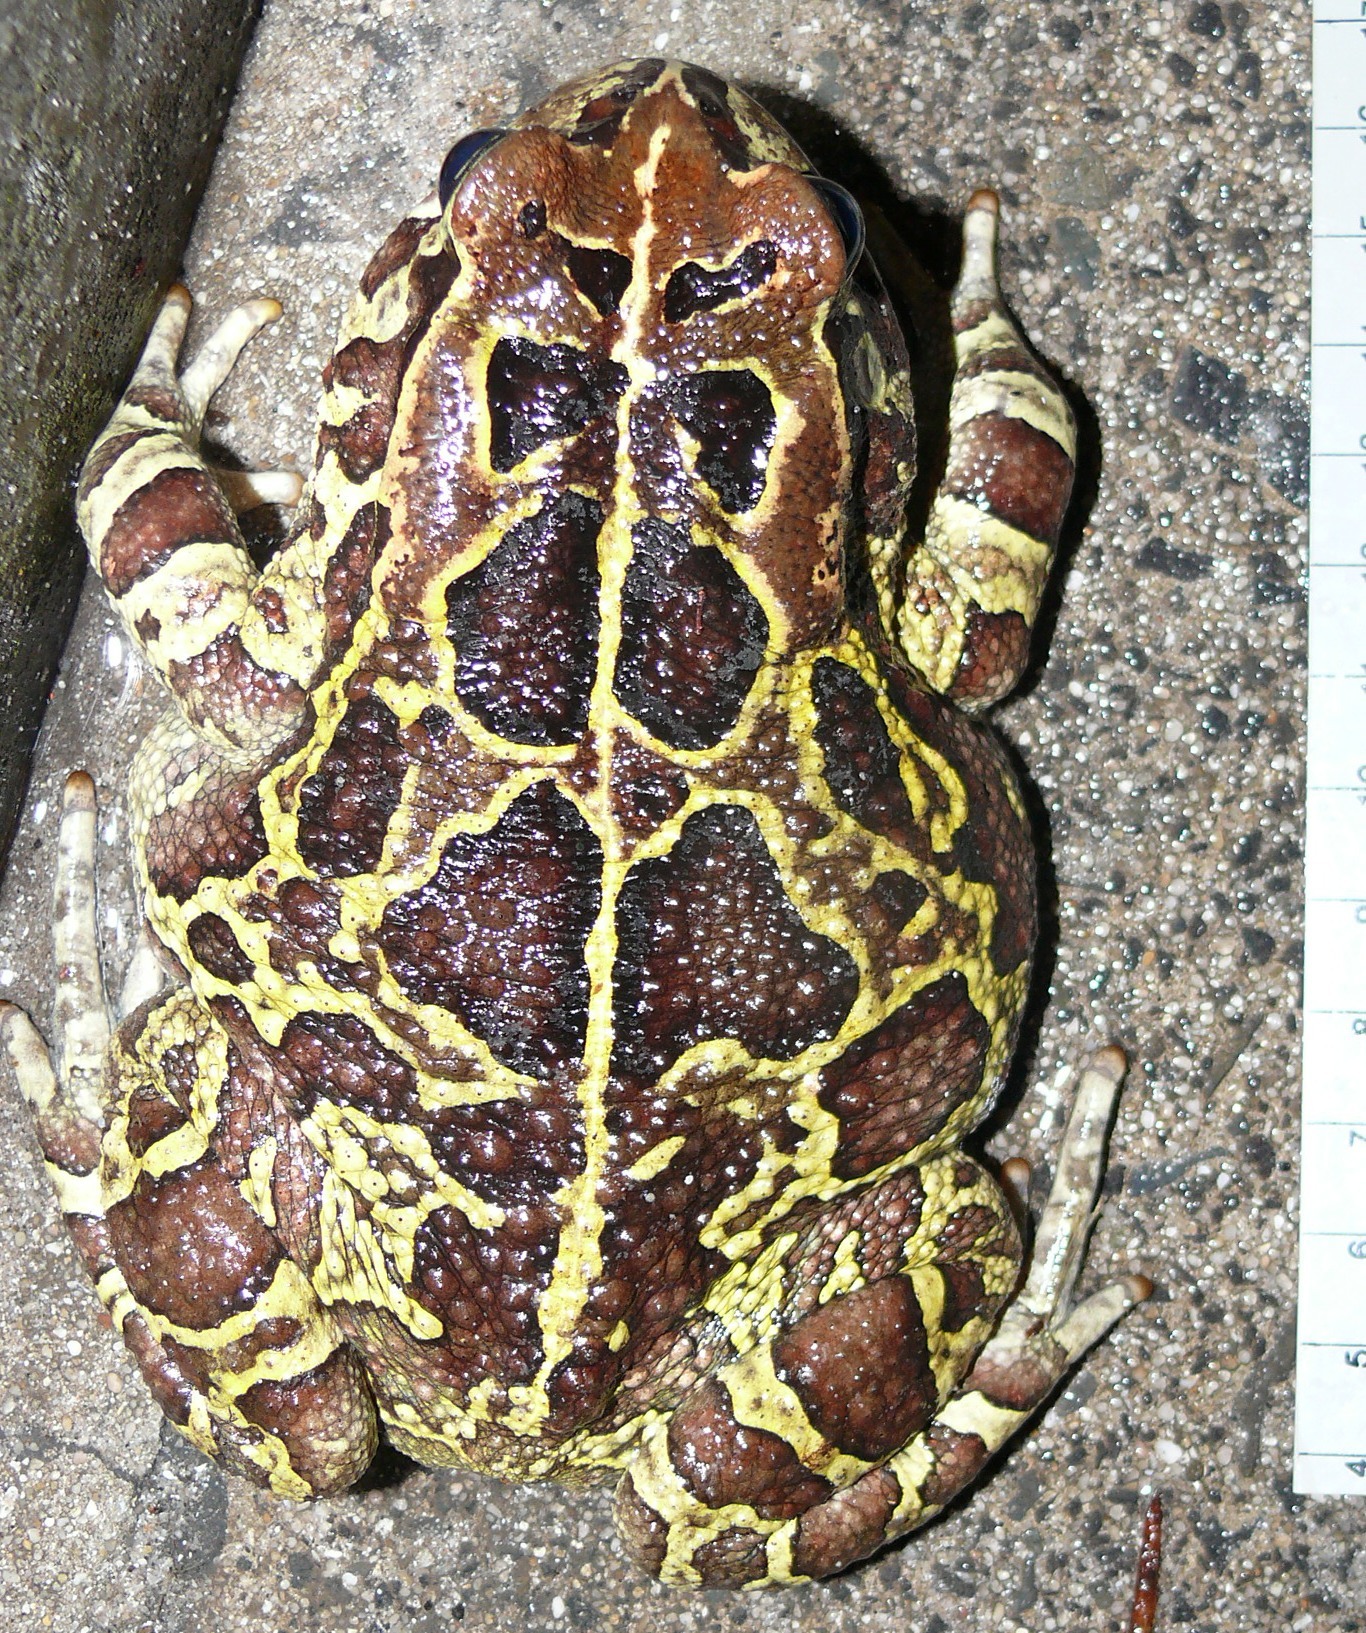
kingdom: Animalia
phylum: Chordata
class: Amphibia
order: Anura
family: Bufonidae
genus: Sclerophrys
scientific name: Sclerophrys pantherina
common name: Panther toad
